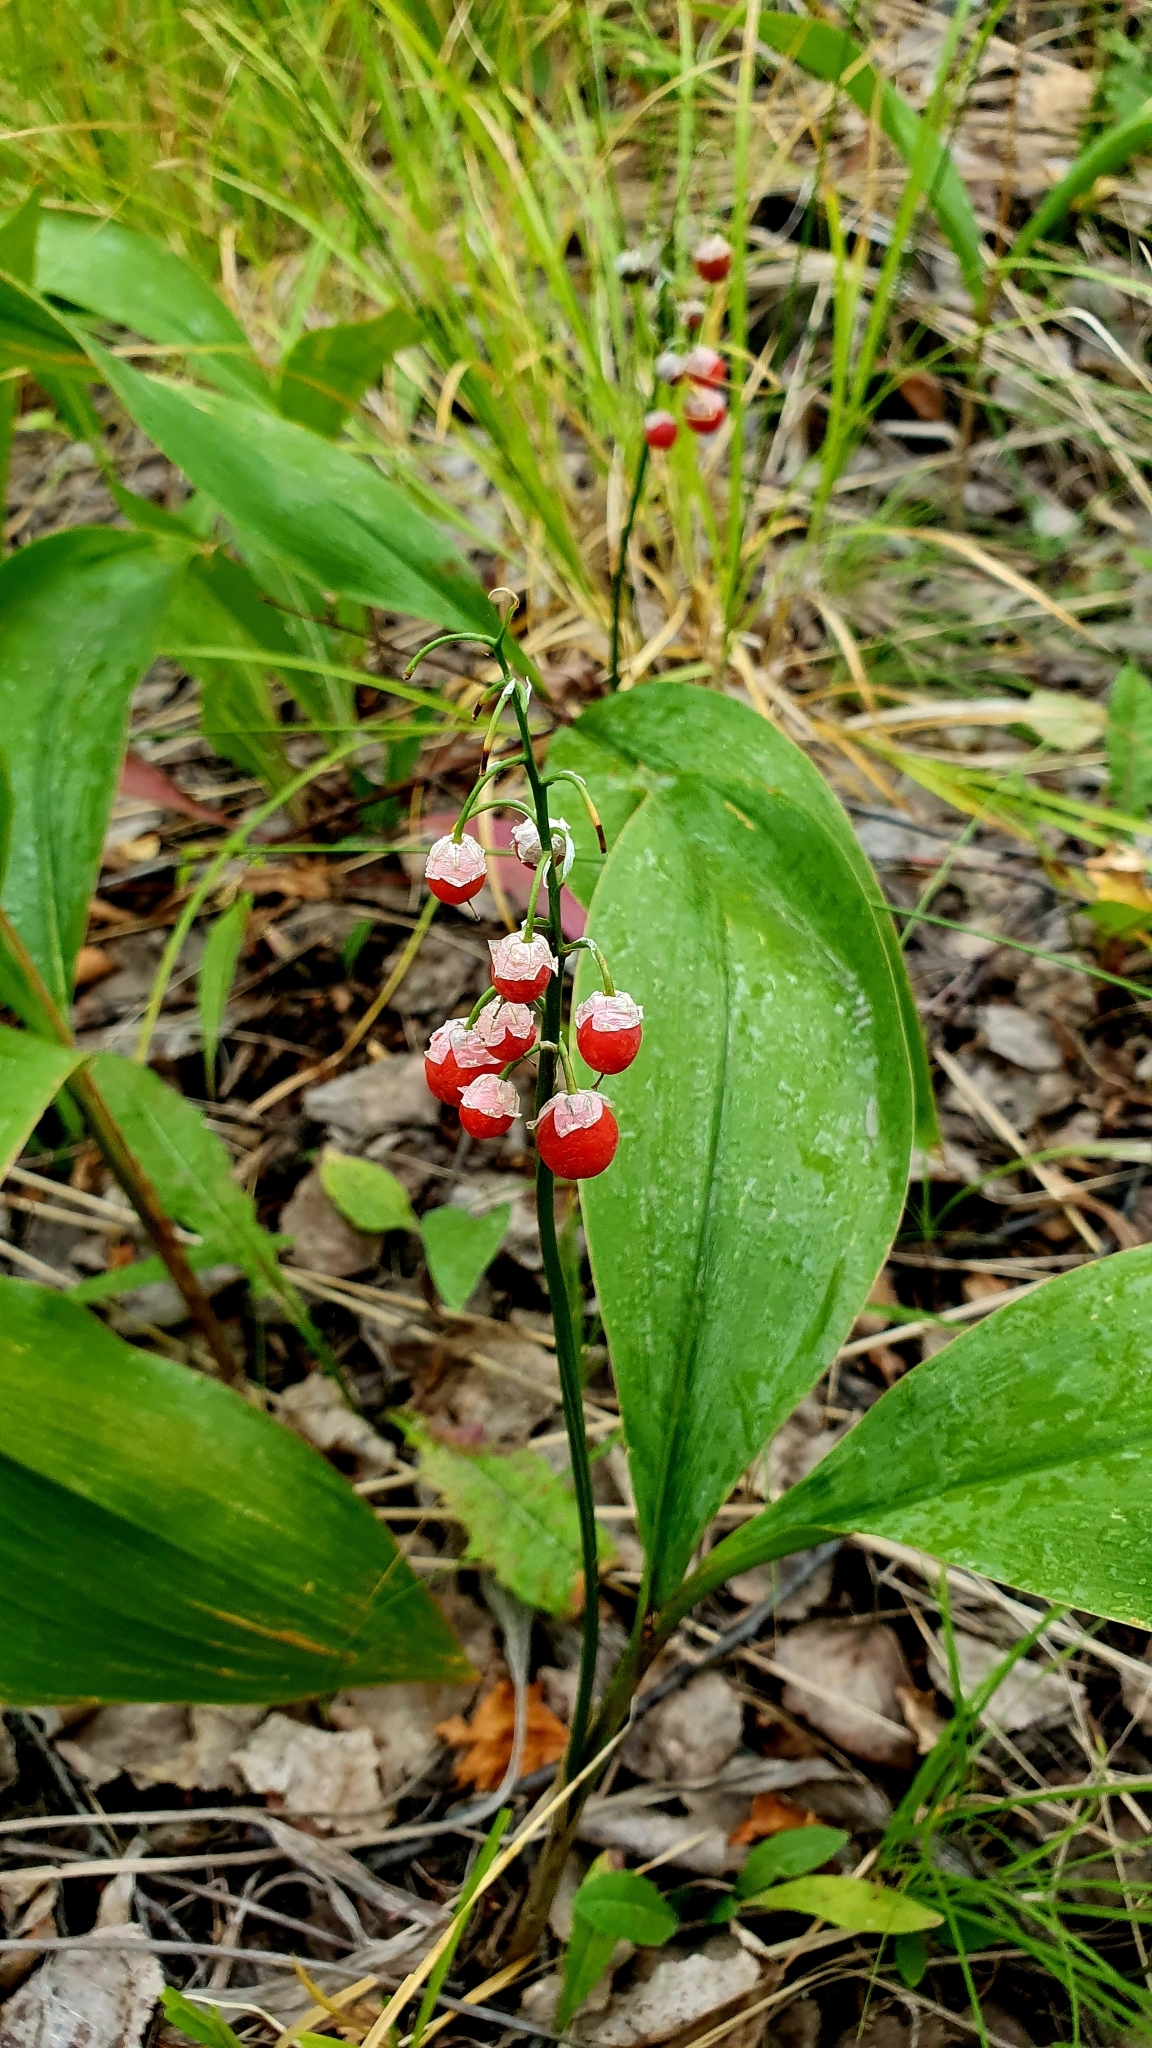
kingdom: Plantae
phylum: Tracheophyta
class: Liliopsida
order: Asparagales
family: Asparagaceae
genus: Convallaria
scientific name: Convallaria majalis
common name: Lily-of-the-valley
